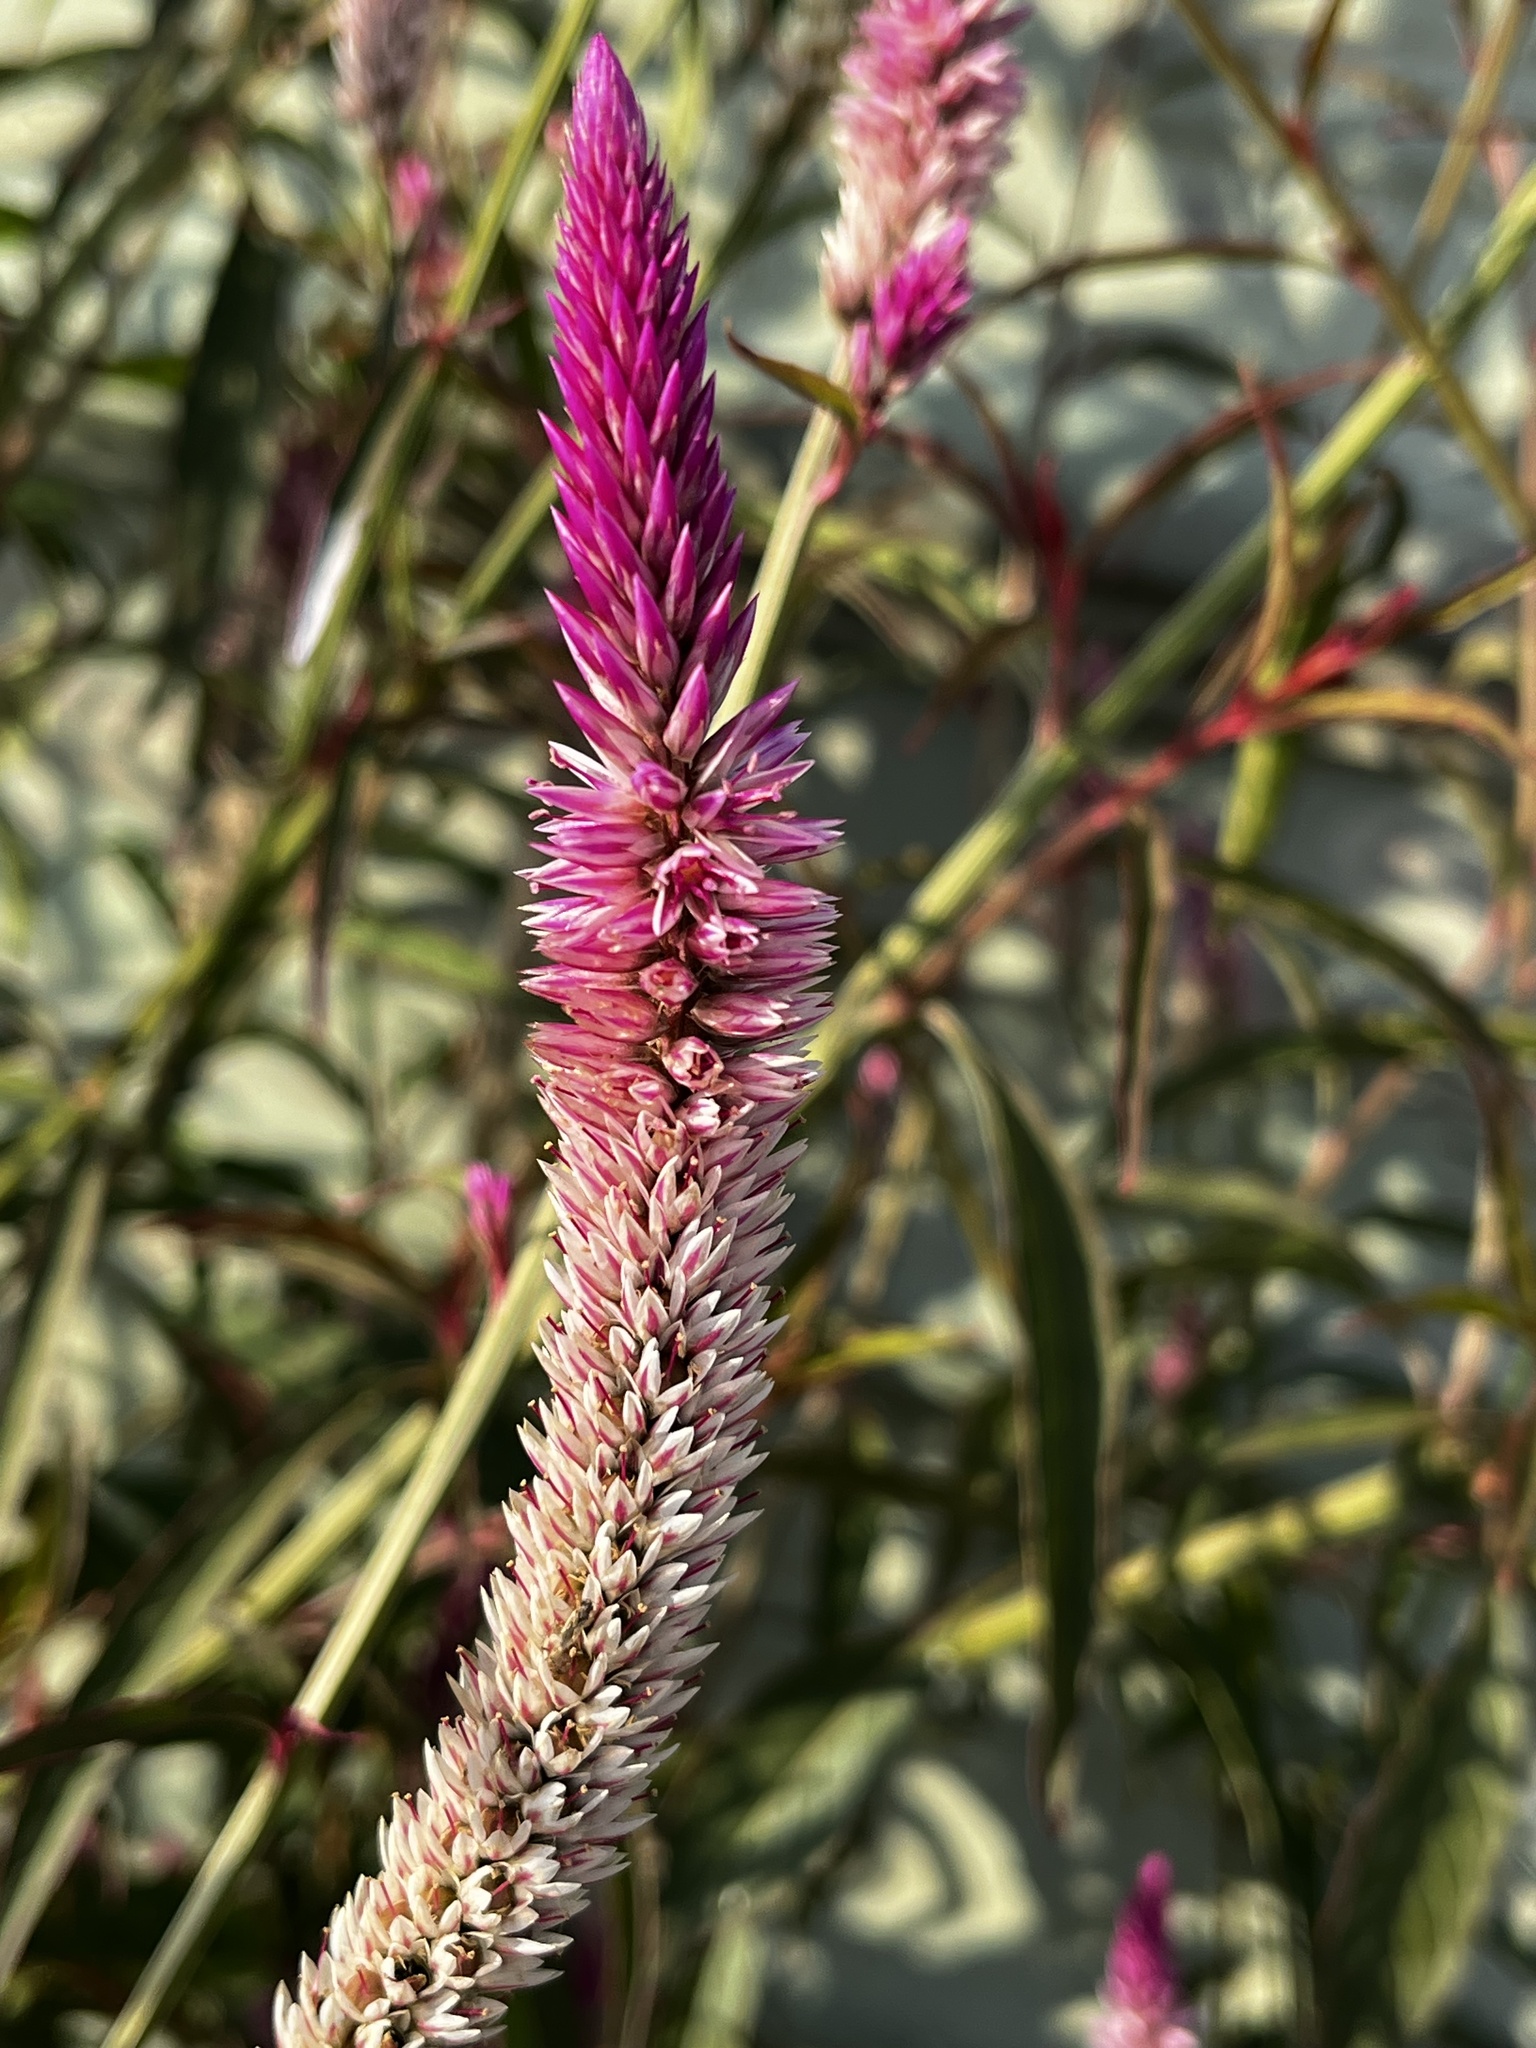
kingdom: Plantae
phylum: Tracheophyta
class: Magnoliopsida
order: Caryophyllales
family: Amaranthaceae
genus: Celosia
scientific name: Celosia argentea
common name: Feather cockscomb
